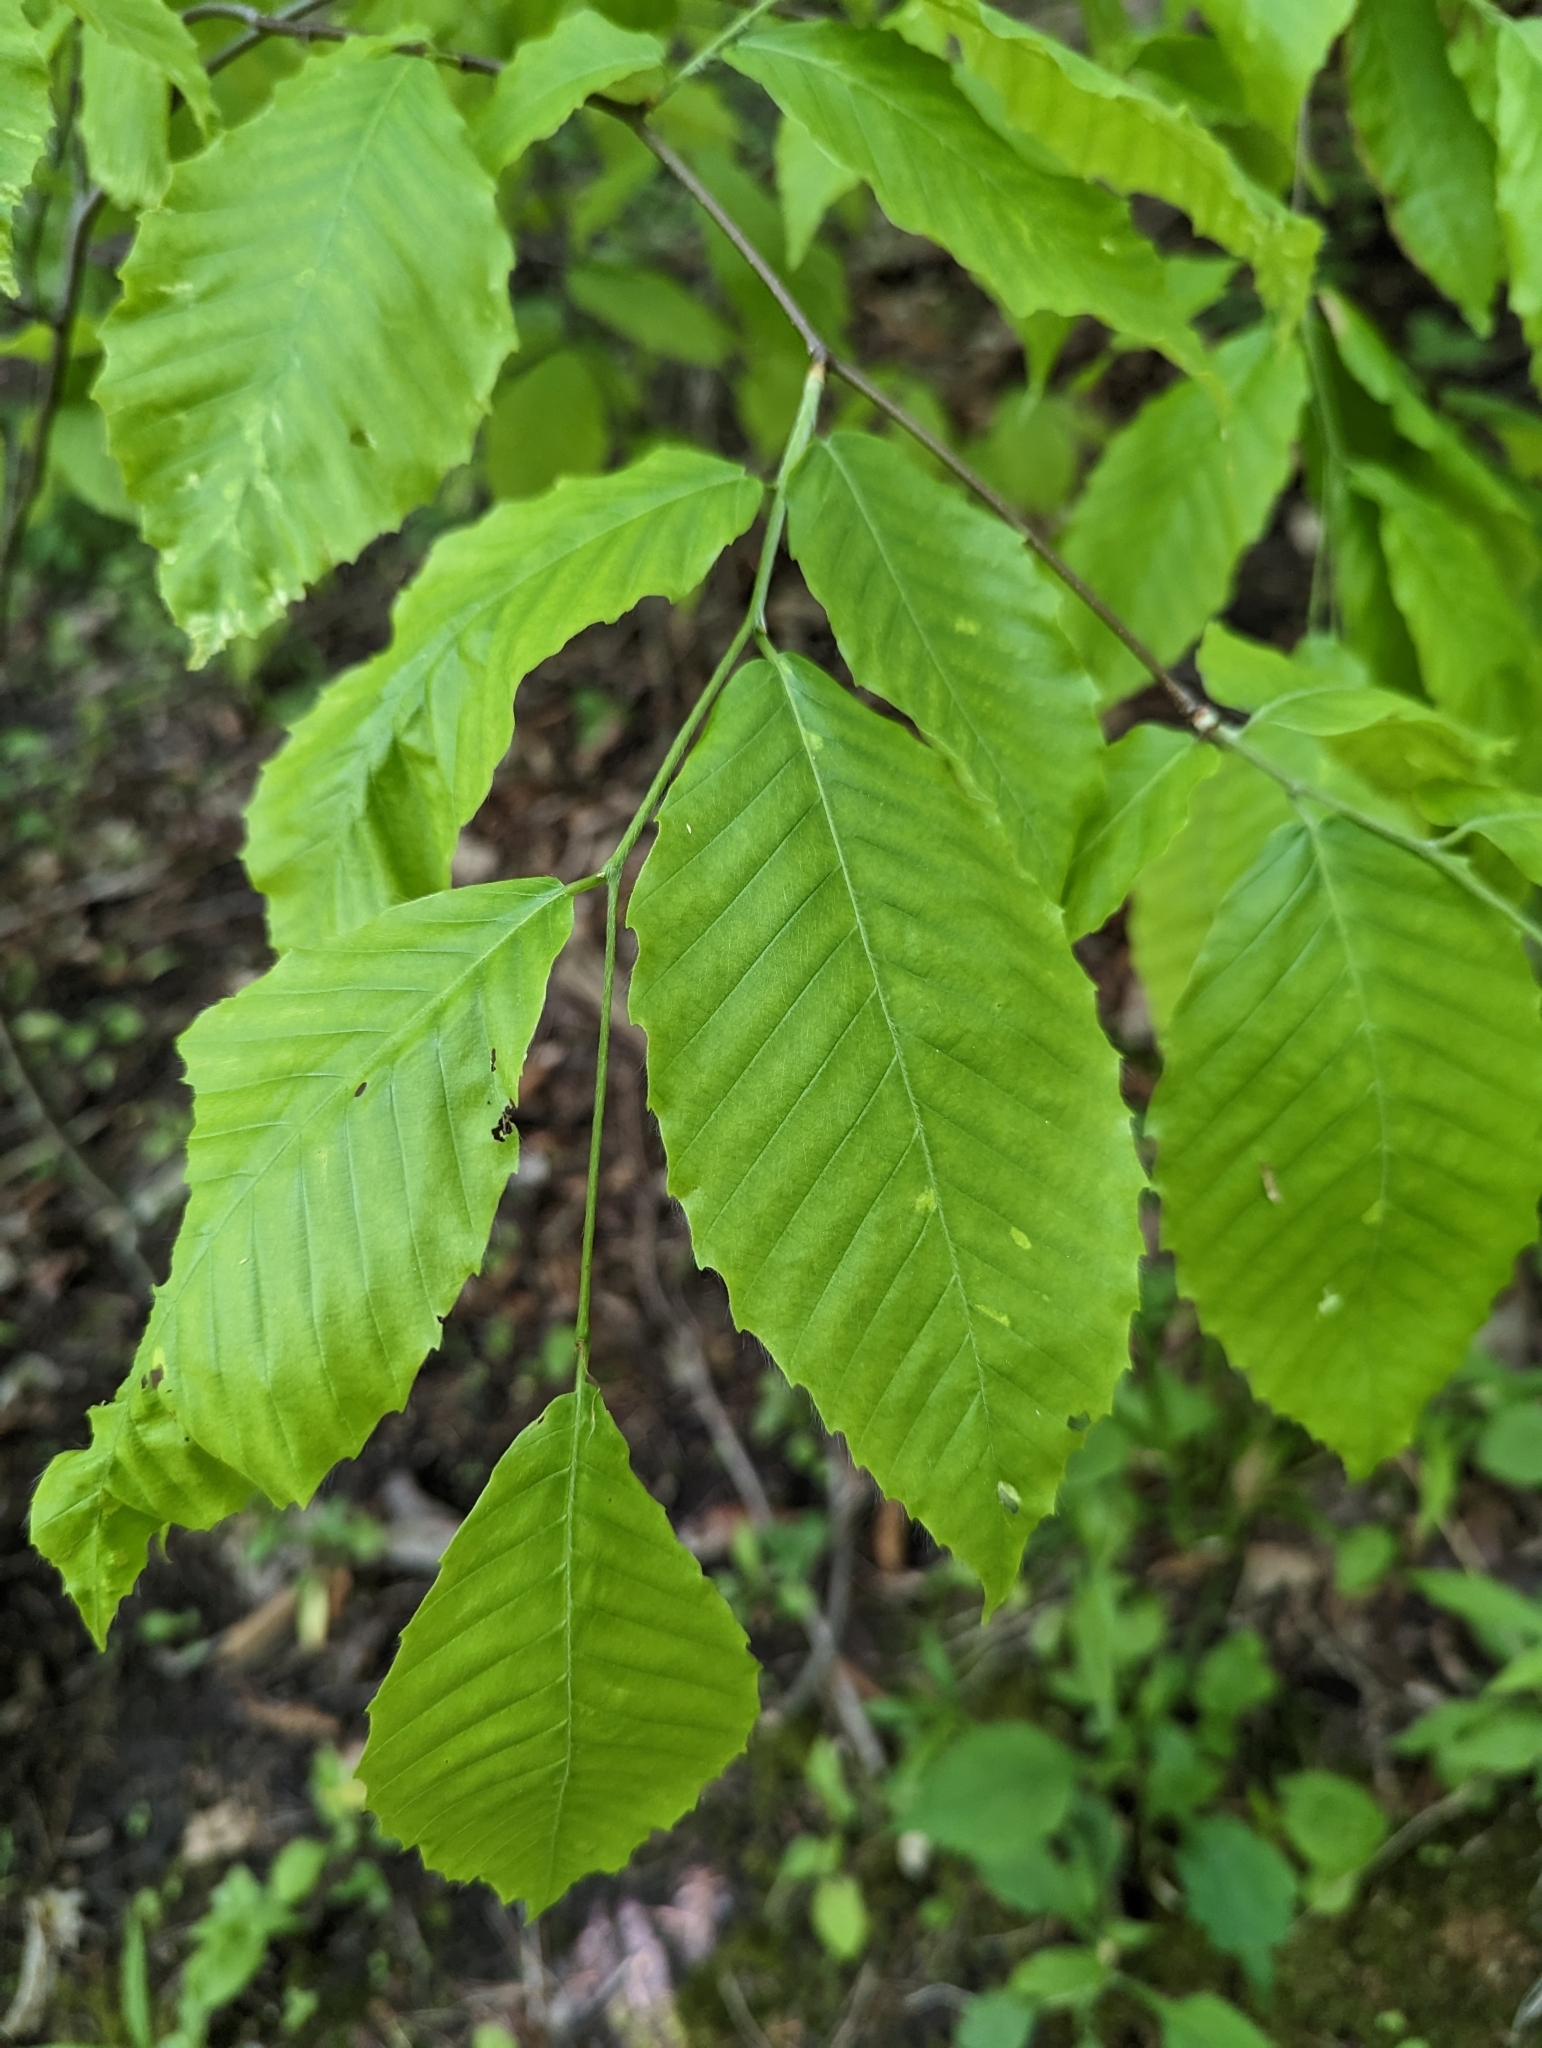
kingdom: Plantae
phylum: Tracheophyta
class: Magnoliopsida
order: Fagales
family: Fagaceae
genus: Fagus
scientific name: Fagus grandifolia
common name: American beech
